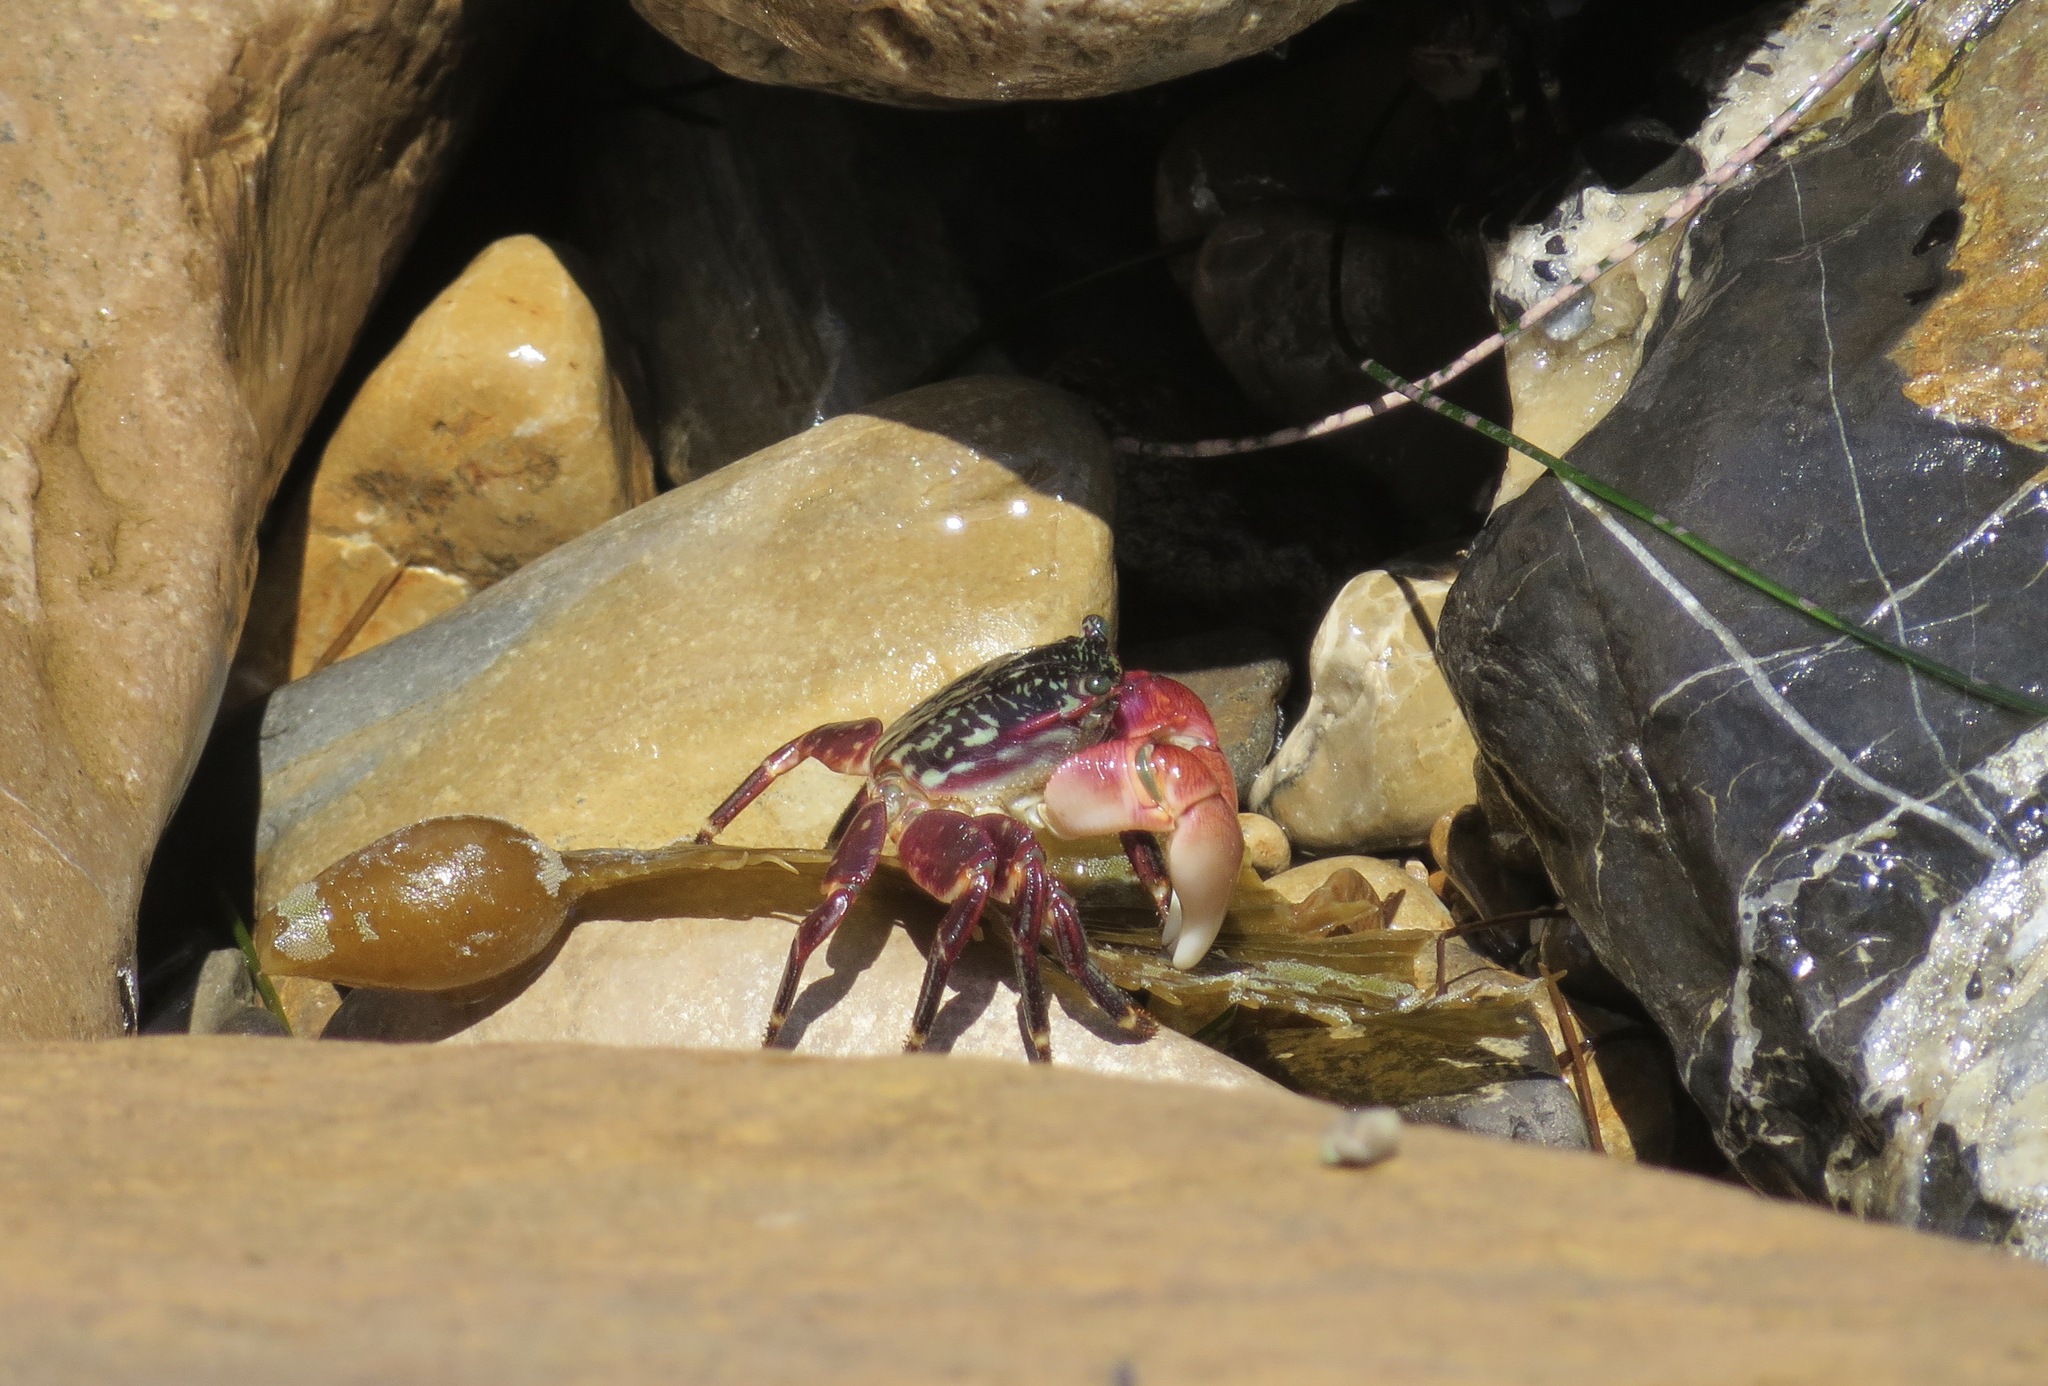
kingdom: Animalia
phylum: Arthropoda
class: Malacostraca
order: Decapoda
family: Grapsidae
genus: Pachygrapsus
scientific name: Pachygrapsus crassipes
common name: Striped shore crab
